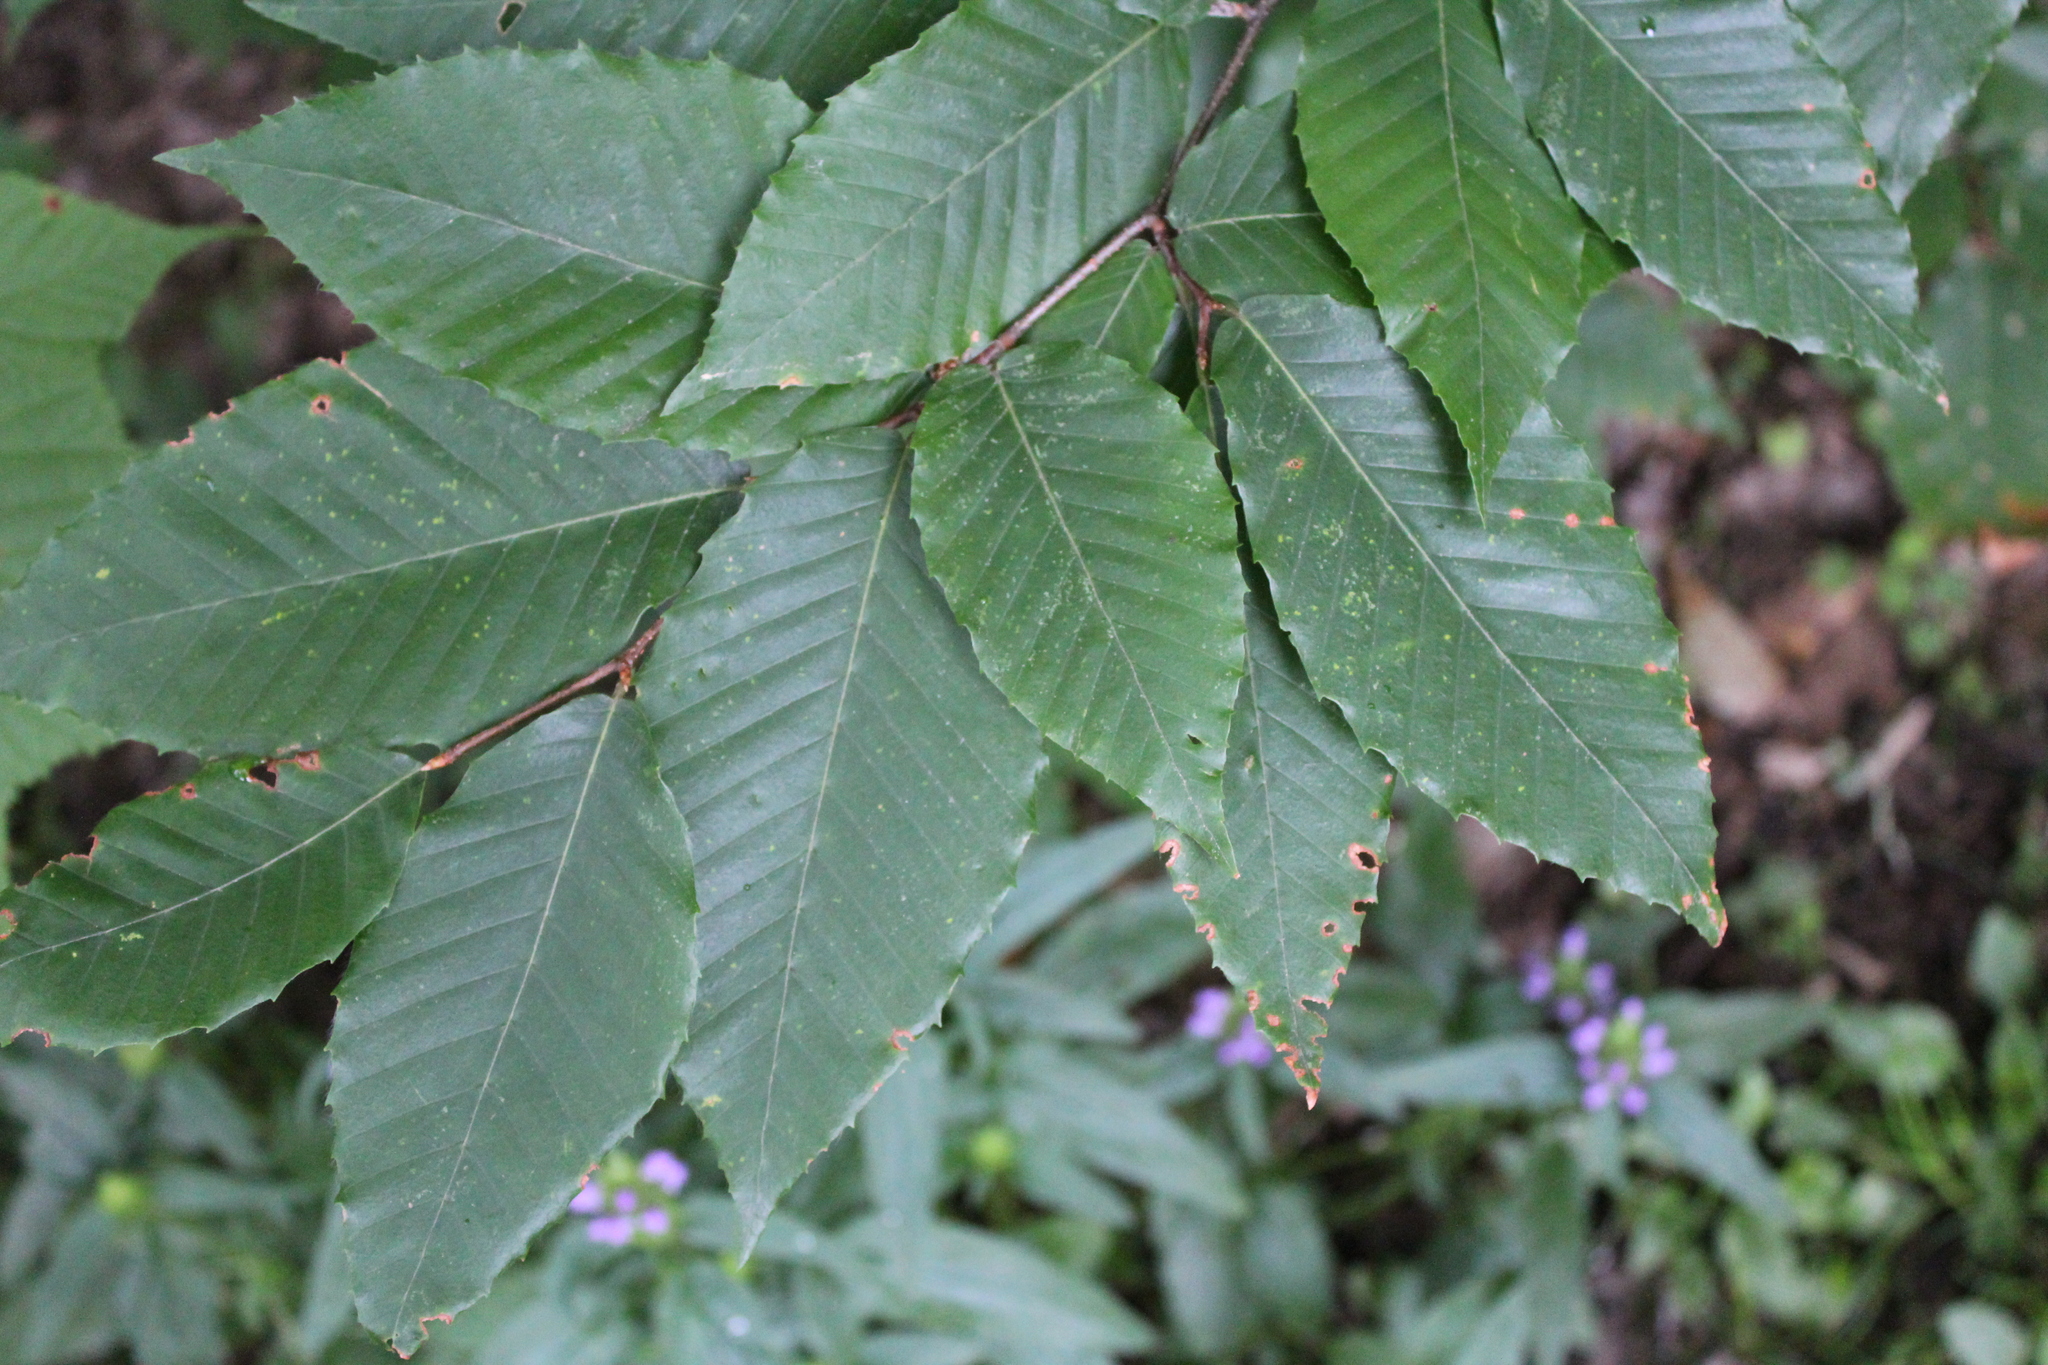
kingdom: Plantae
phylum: Tracheophyta
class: Magnoliopsida
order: Fagales
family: Fagaceae
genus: Fagus
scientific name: Fagus grandifolia
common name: American beech
